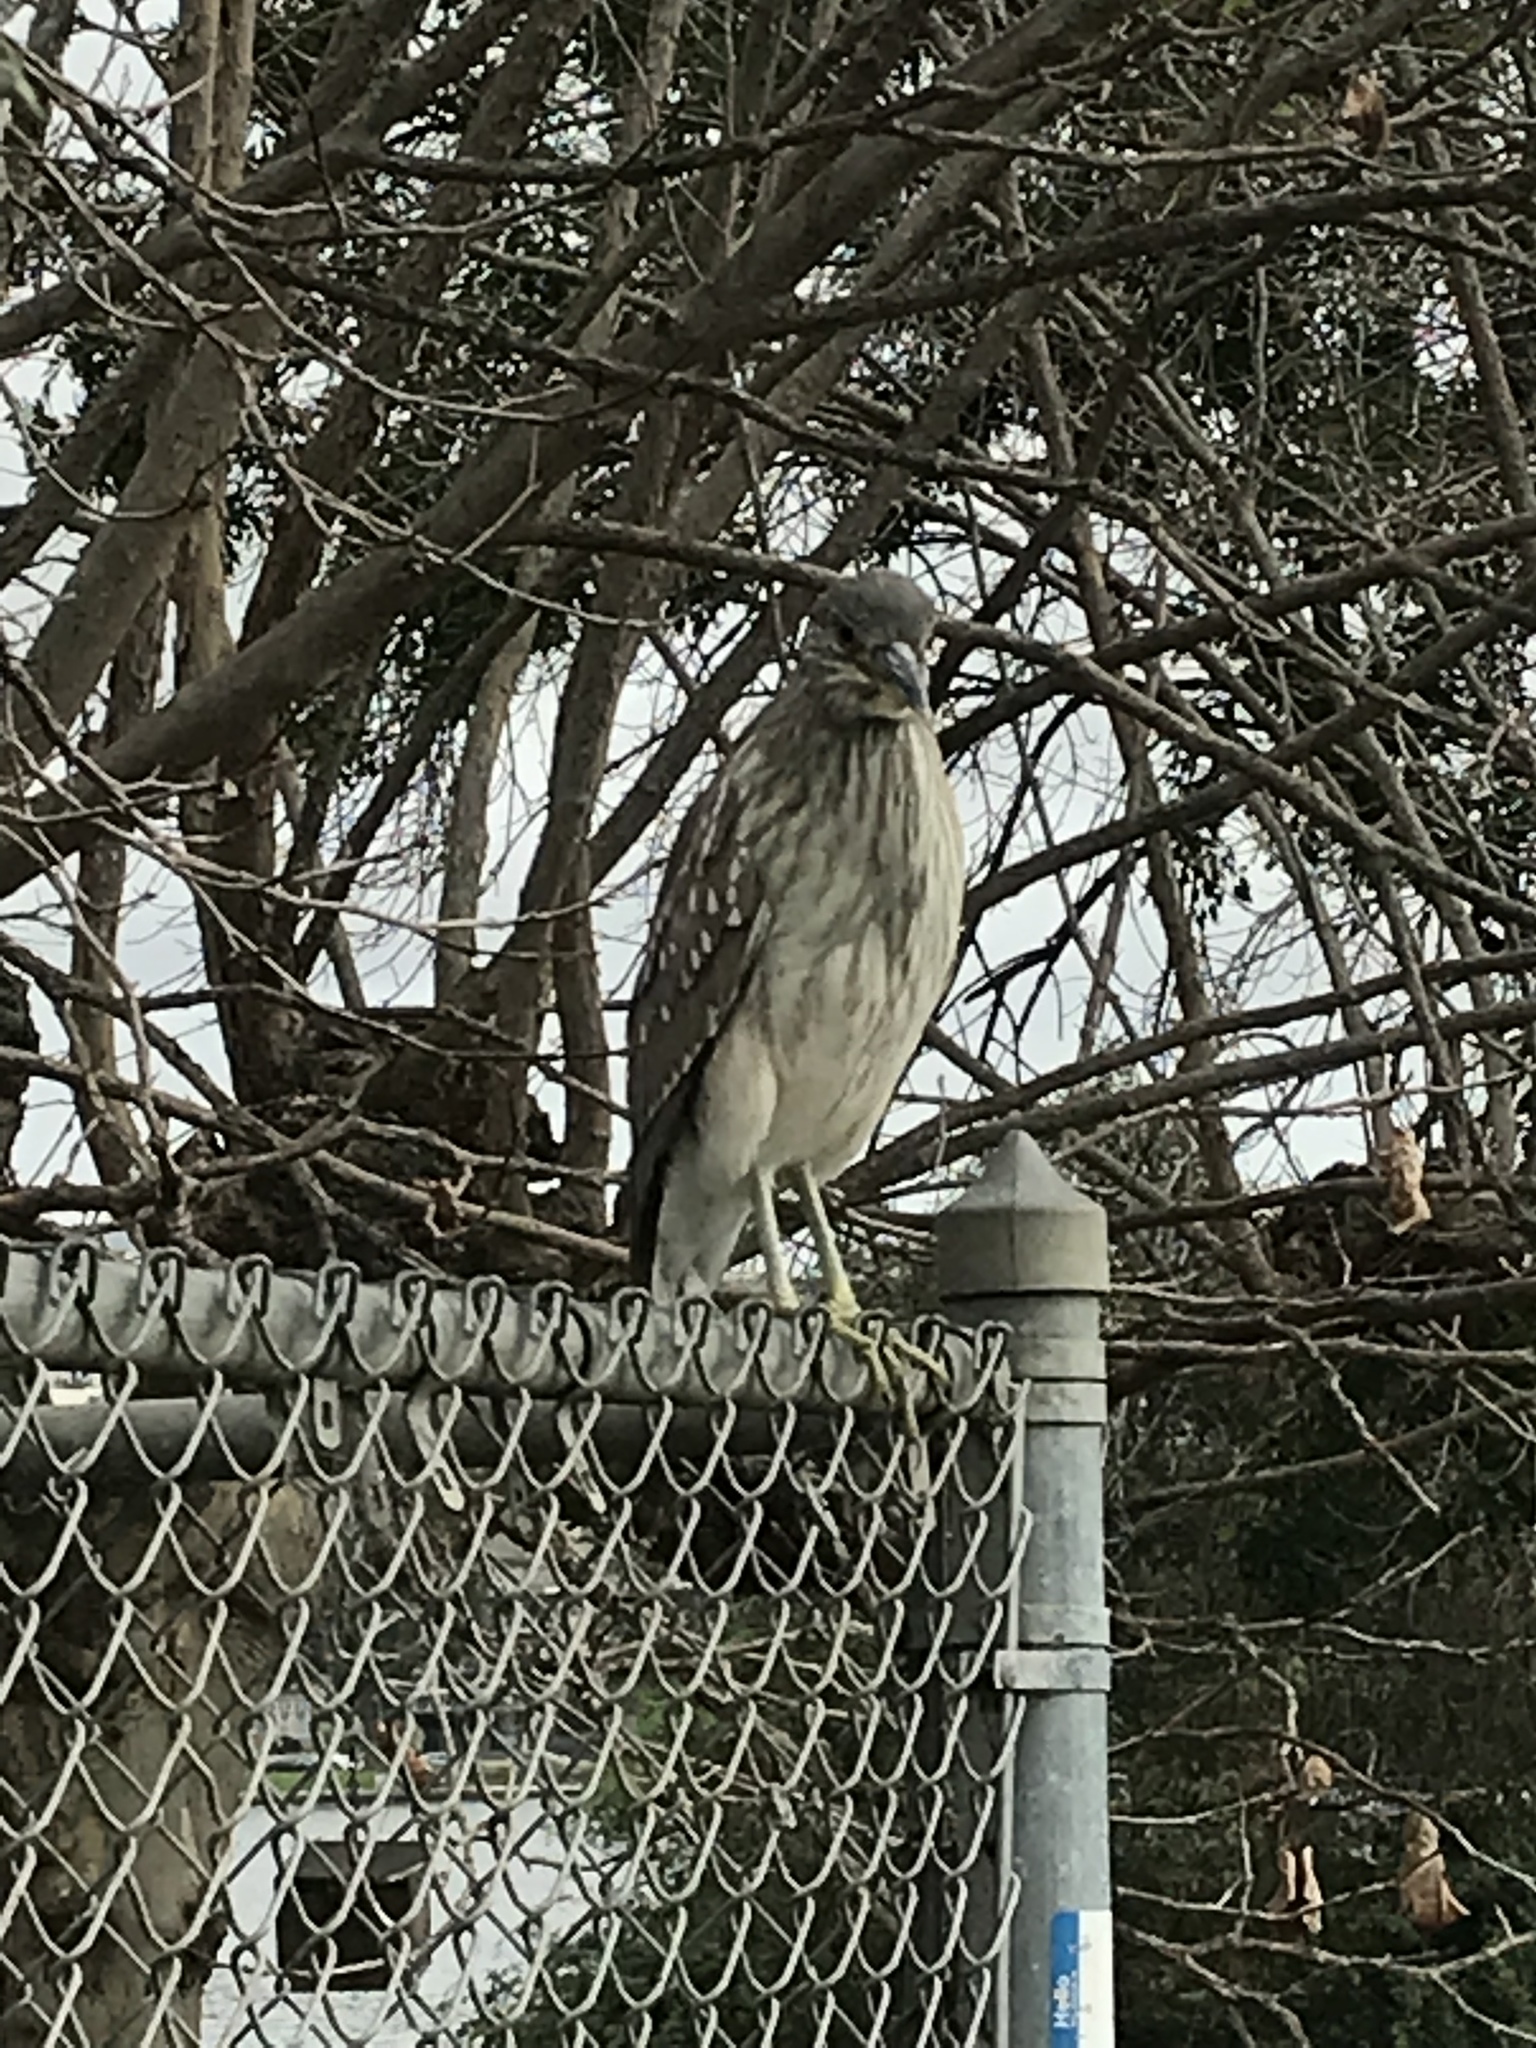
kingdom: Animalia
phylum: Chordata
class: Aves
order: Pelecaniformes
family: Ardeidae
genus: Nycticorax
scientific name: Nycticorax nycticorax
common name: Black-crowned night heron
